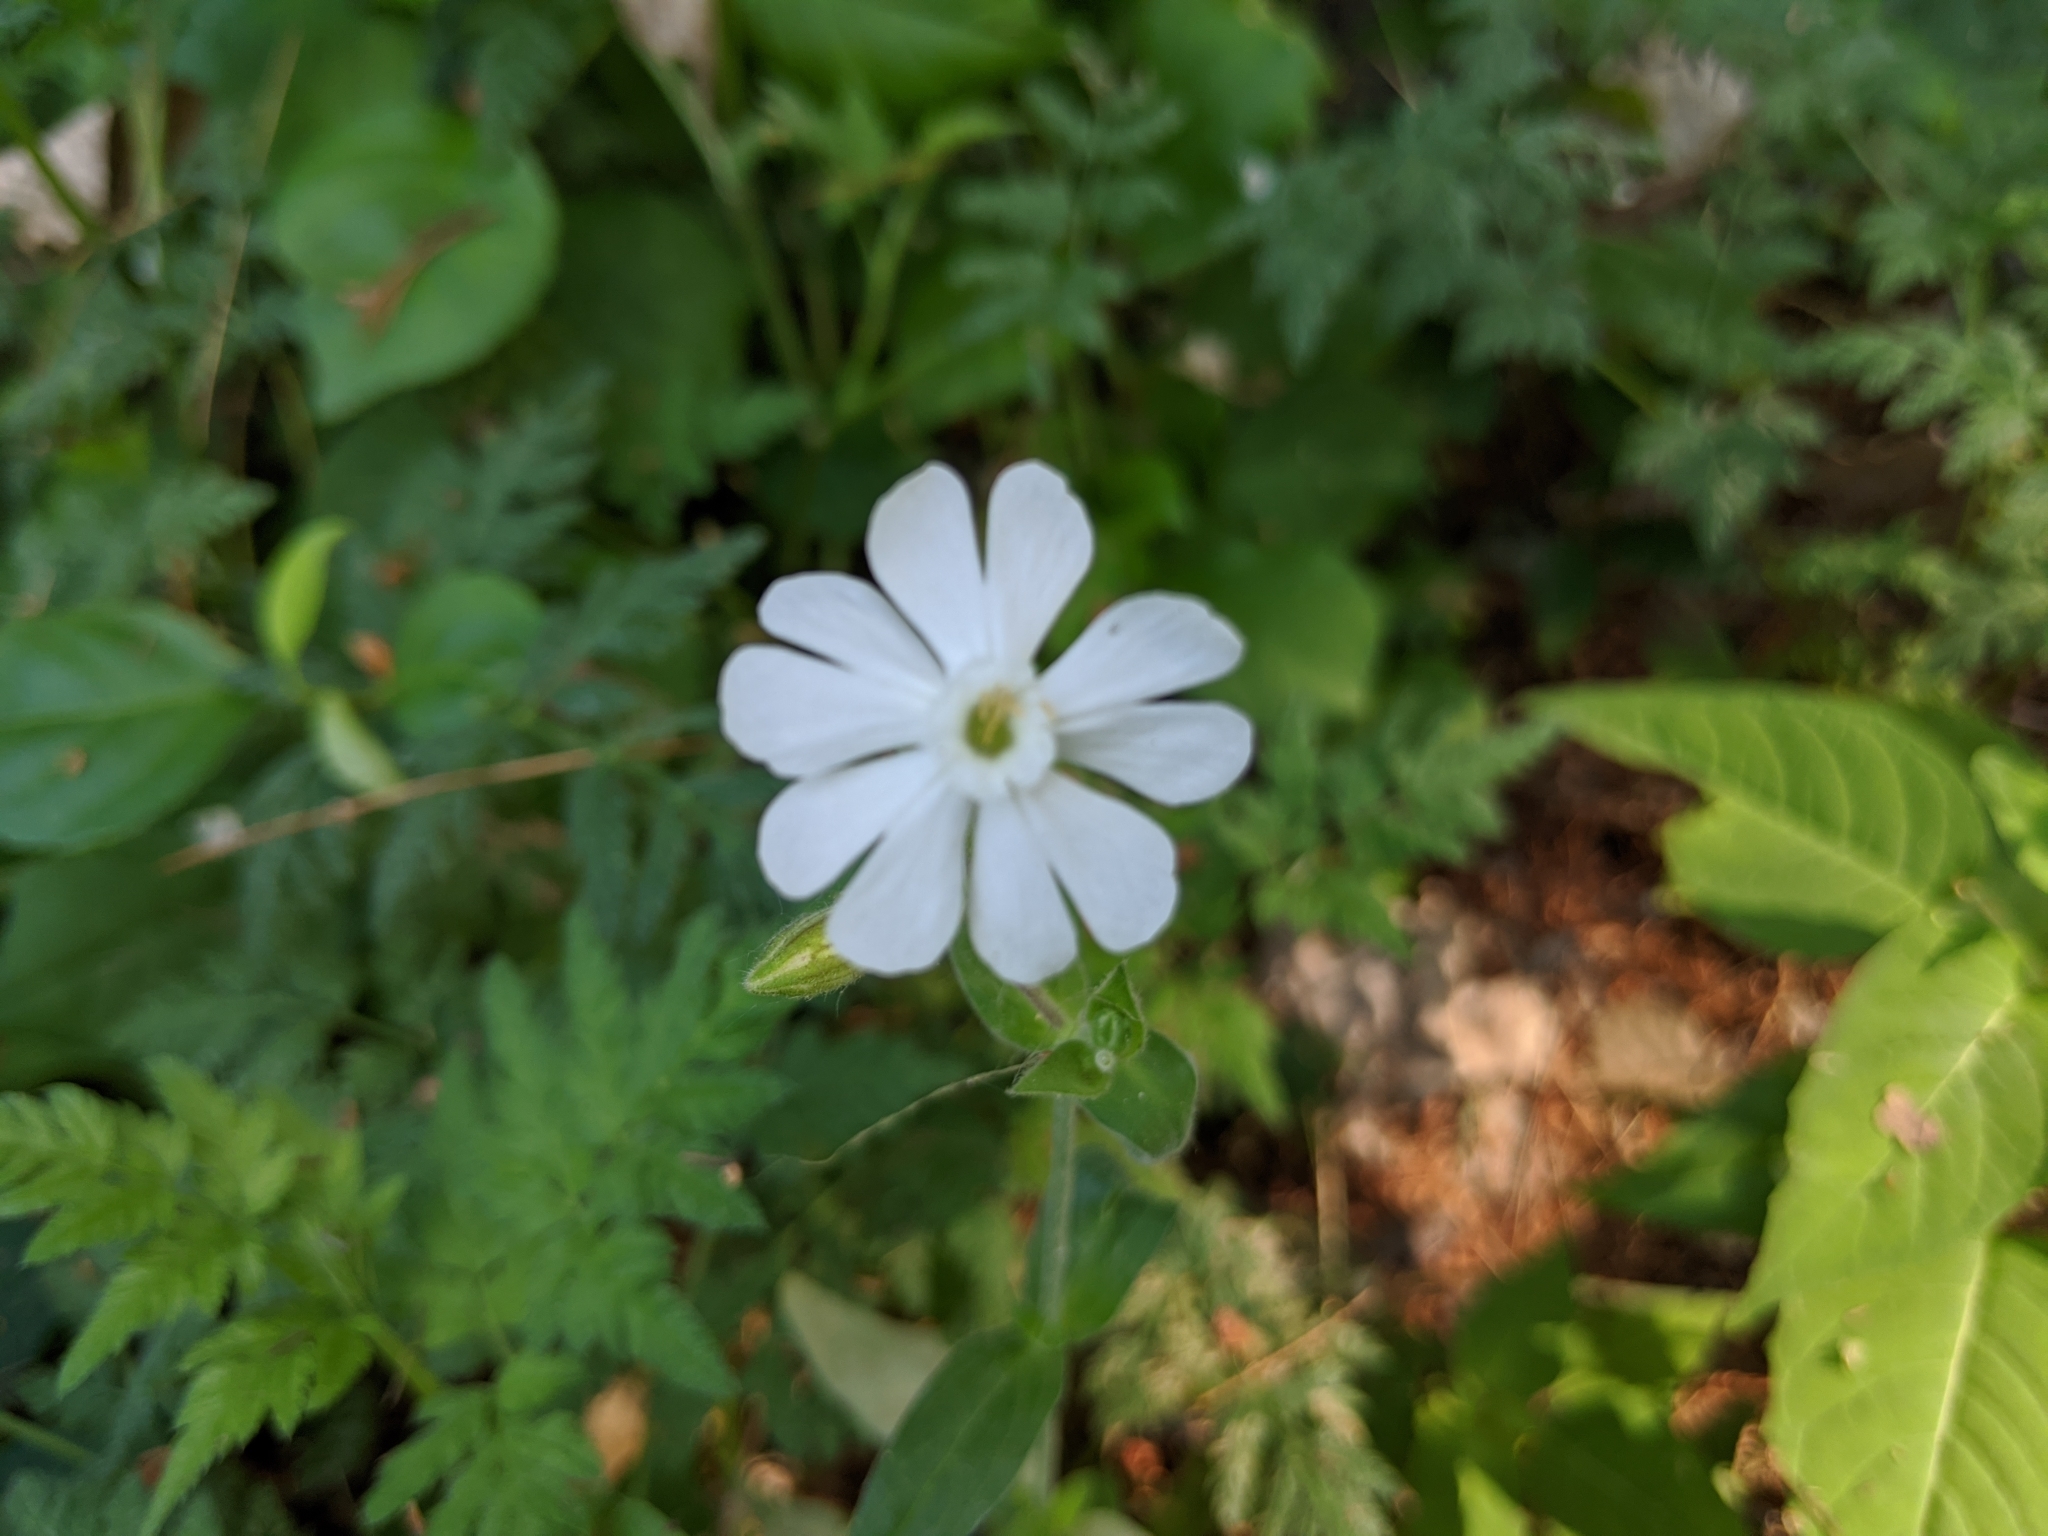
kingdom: Plantae
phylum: Tracheophyta
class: Magnoliopsida
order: Caryophyllales
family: Caryophyllaceae
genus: Silene
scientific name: Silene latifolia
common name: White campion
